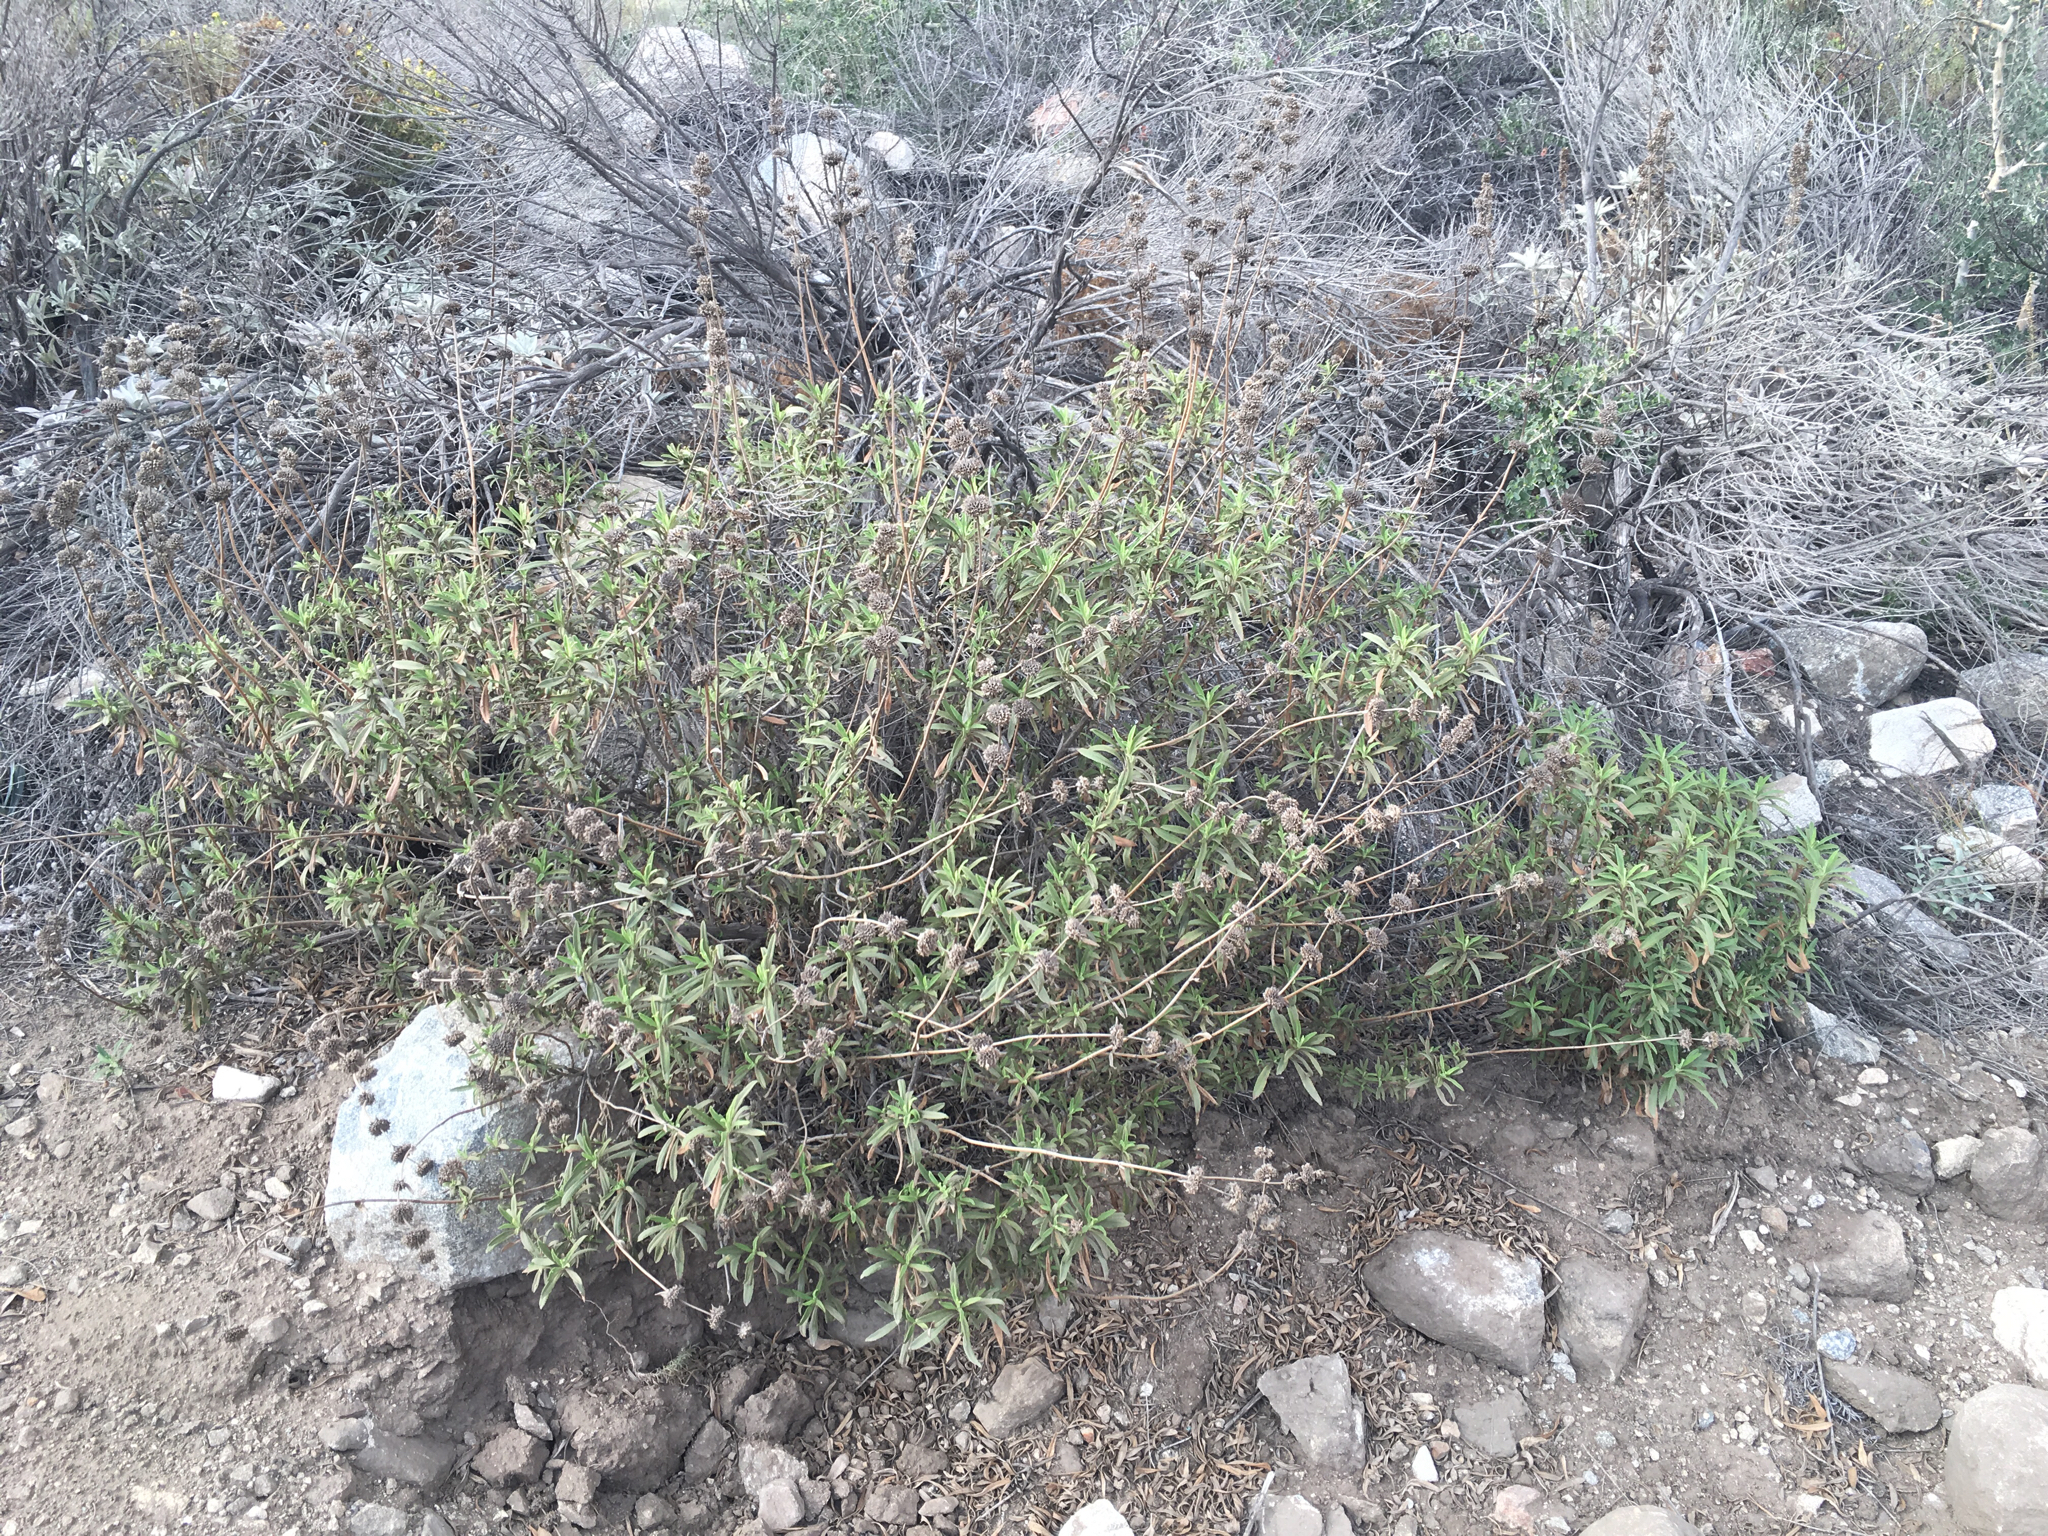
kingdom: Plantae
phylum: Tracheophyta
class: Magnoliopsida
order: Lamiales
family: Lamiaceae
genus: Salvia
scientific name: Salvia mellifera
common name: Black sage
